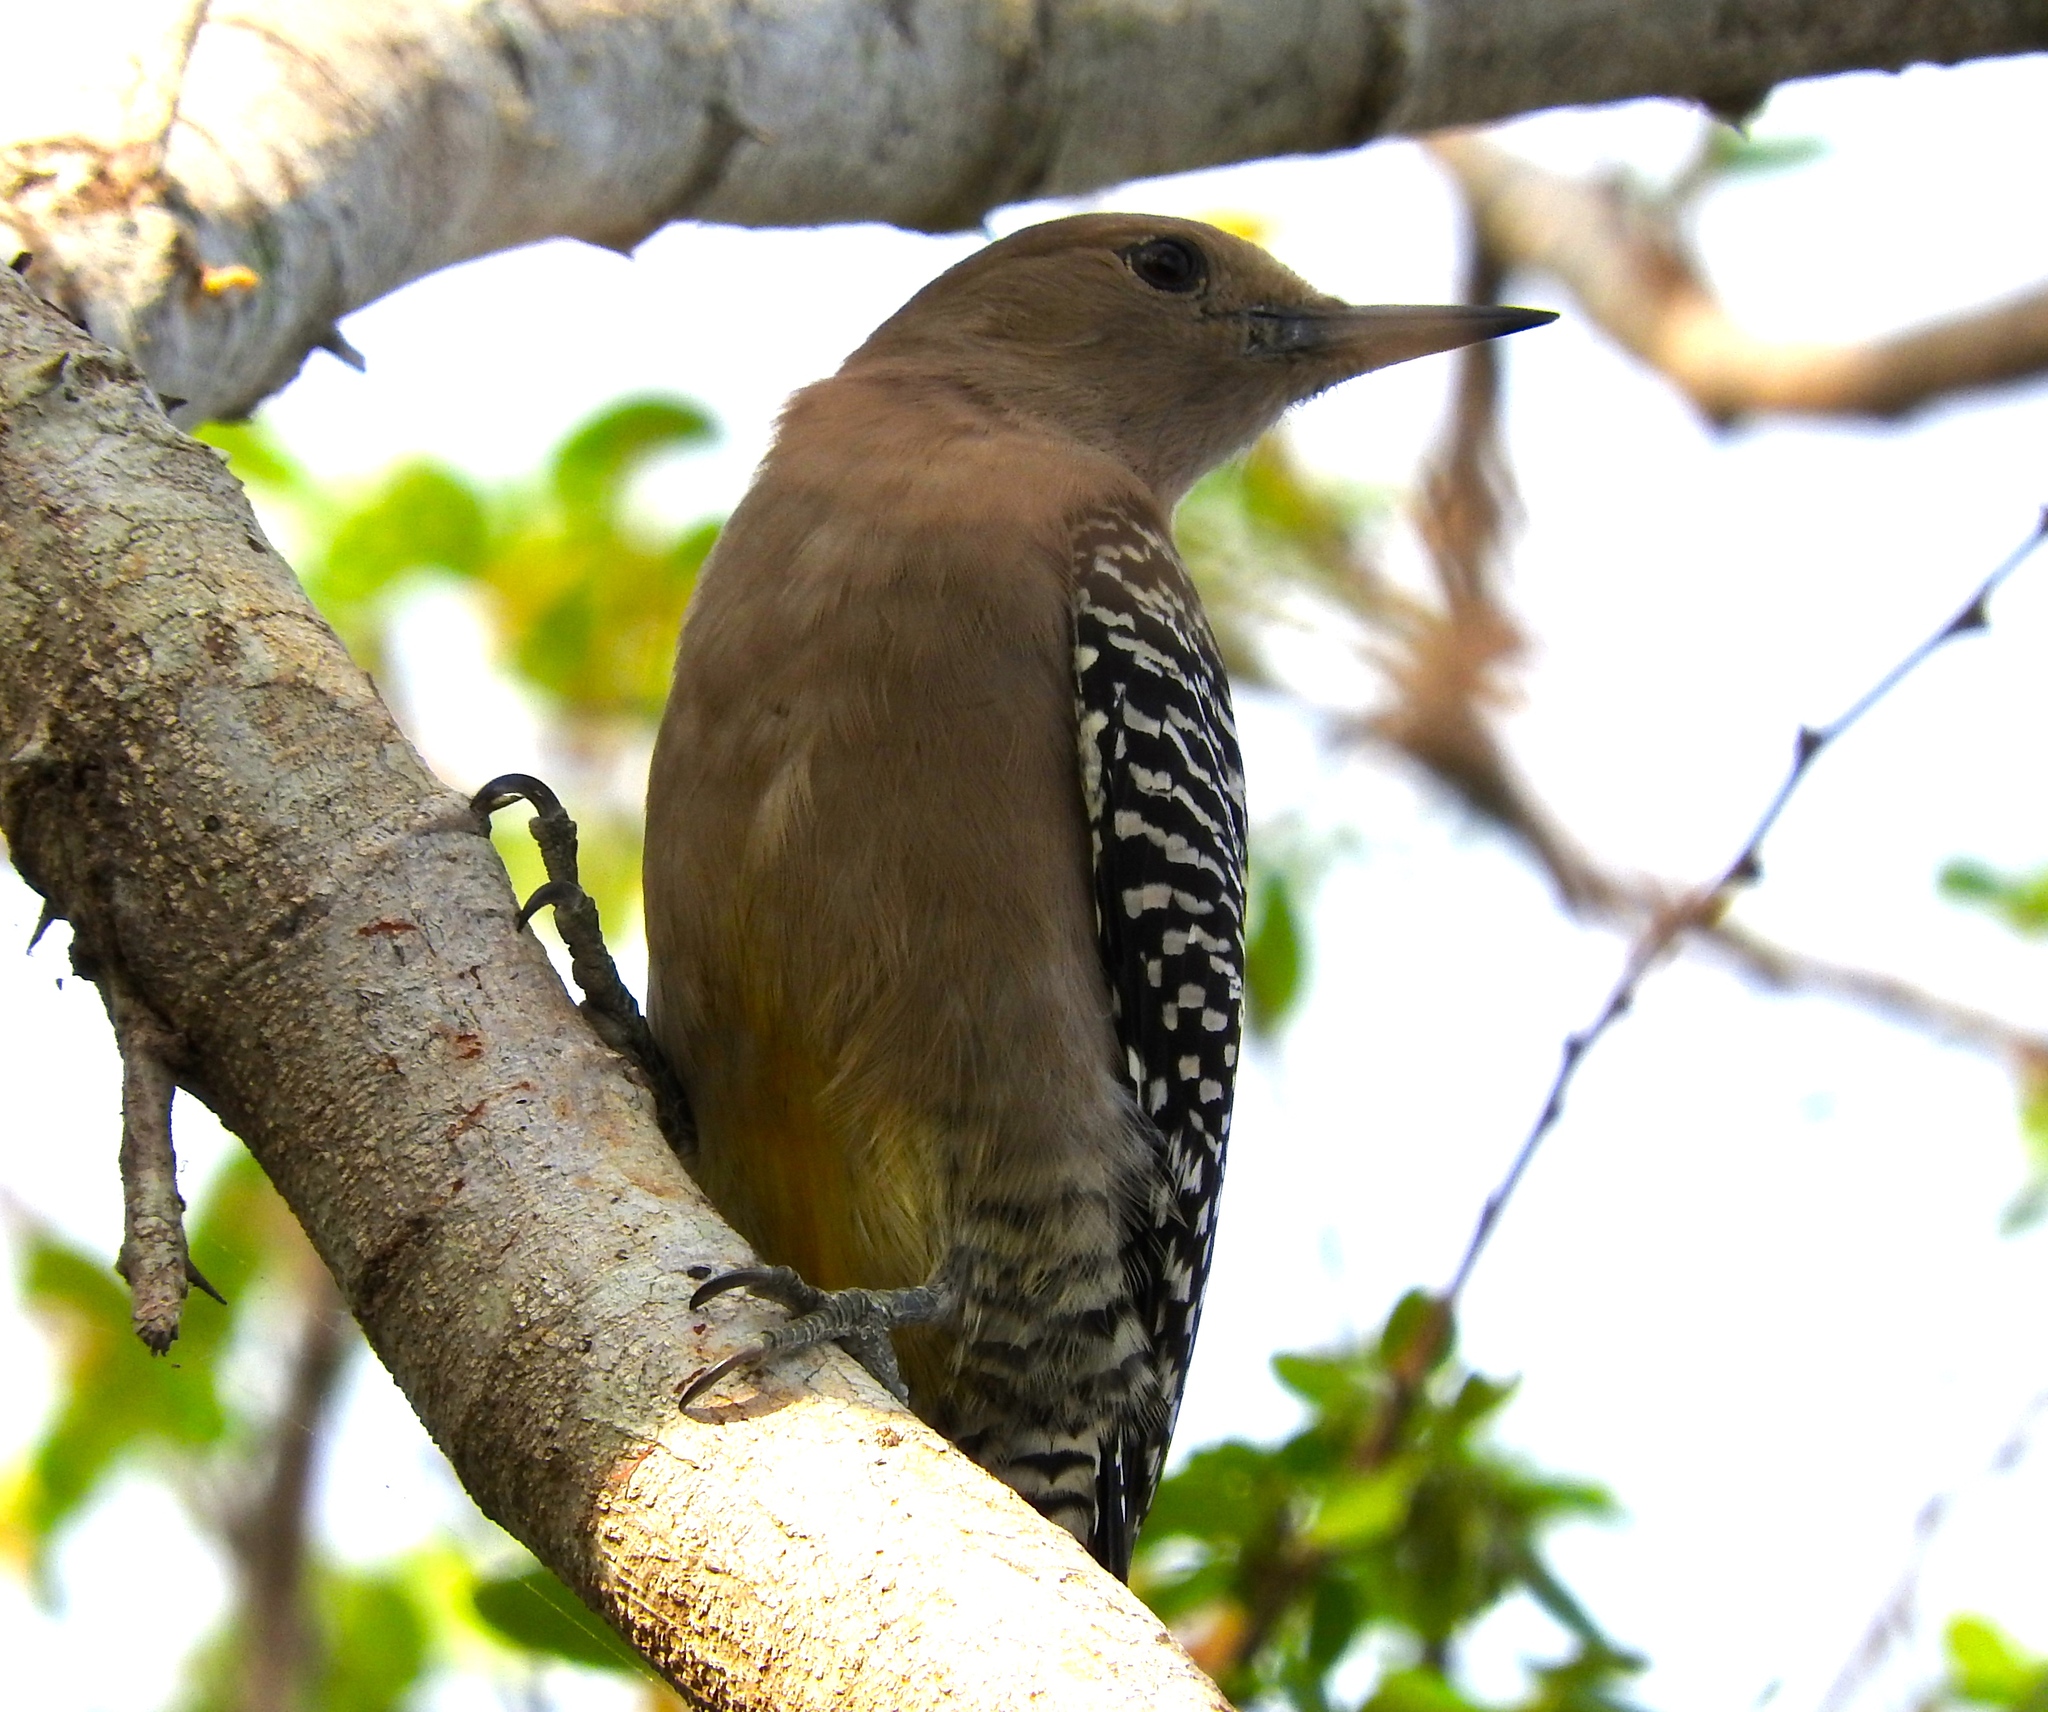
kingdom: Animalia
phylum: Chordata
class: Aves
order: Piciformes
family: Picidae
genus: Melanerpes
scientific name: Melanerpes uropygialis
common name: Gila woodpecker
